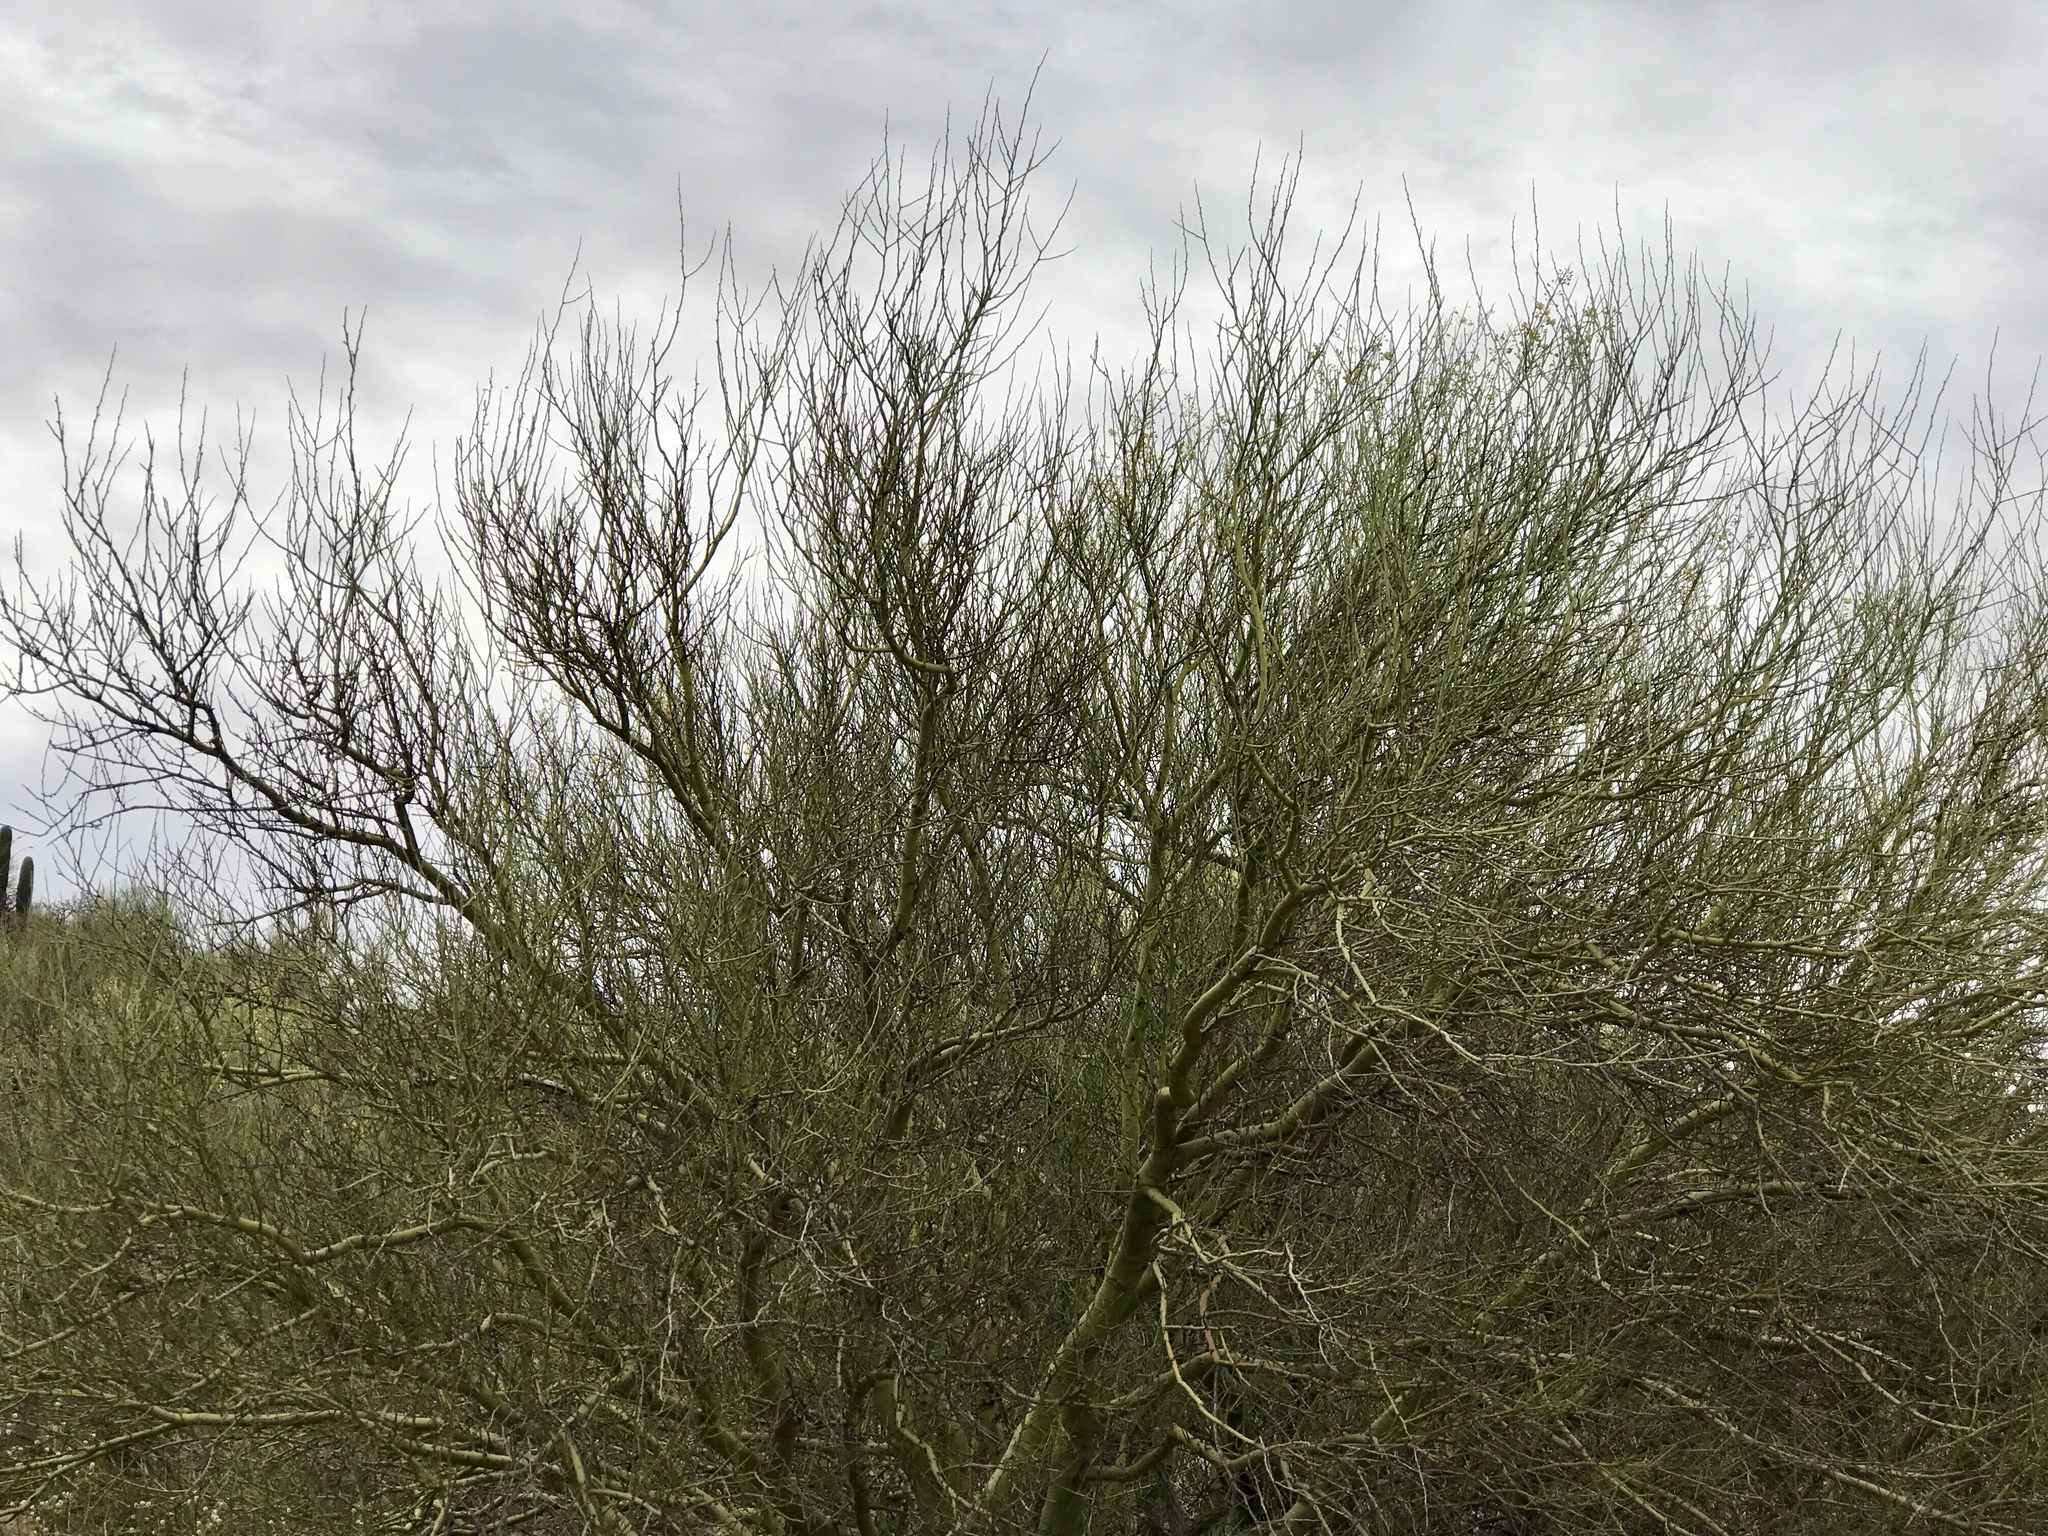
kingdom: Plantae
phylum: Tracheophyta
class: Magnoliopsida
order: Fabales
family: Fabaceae
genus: Parkinsonia
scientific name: Parkinsonia microphylla
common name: Yellow paloverde
